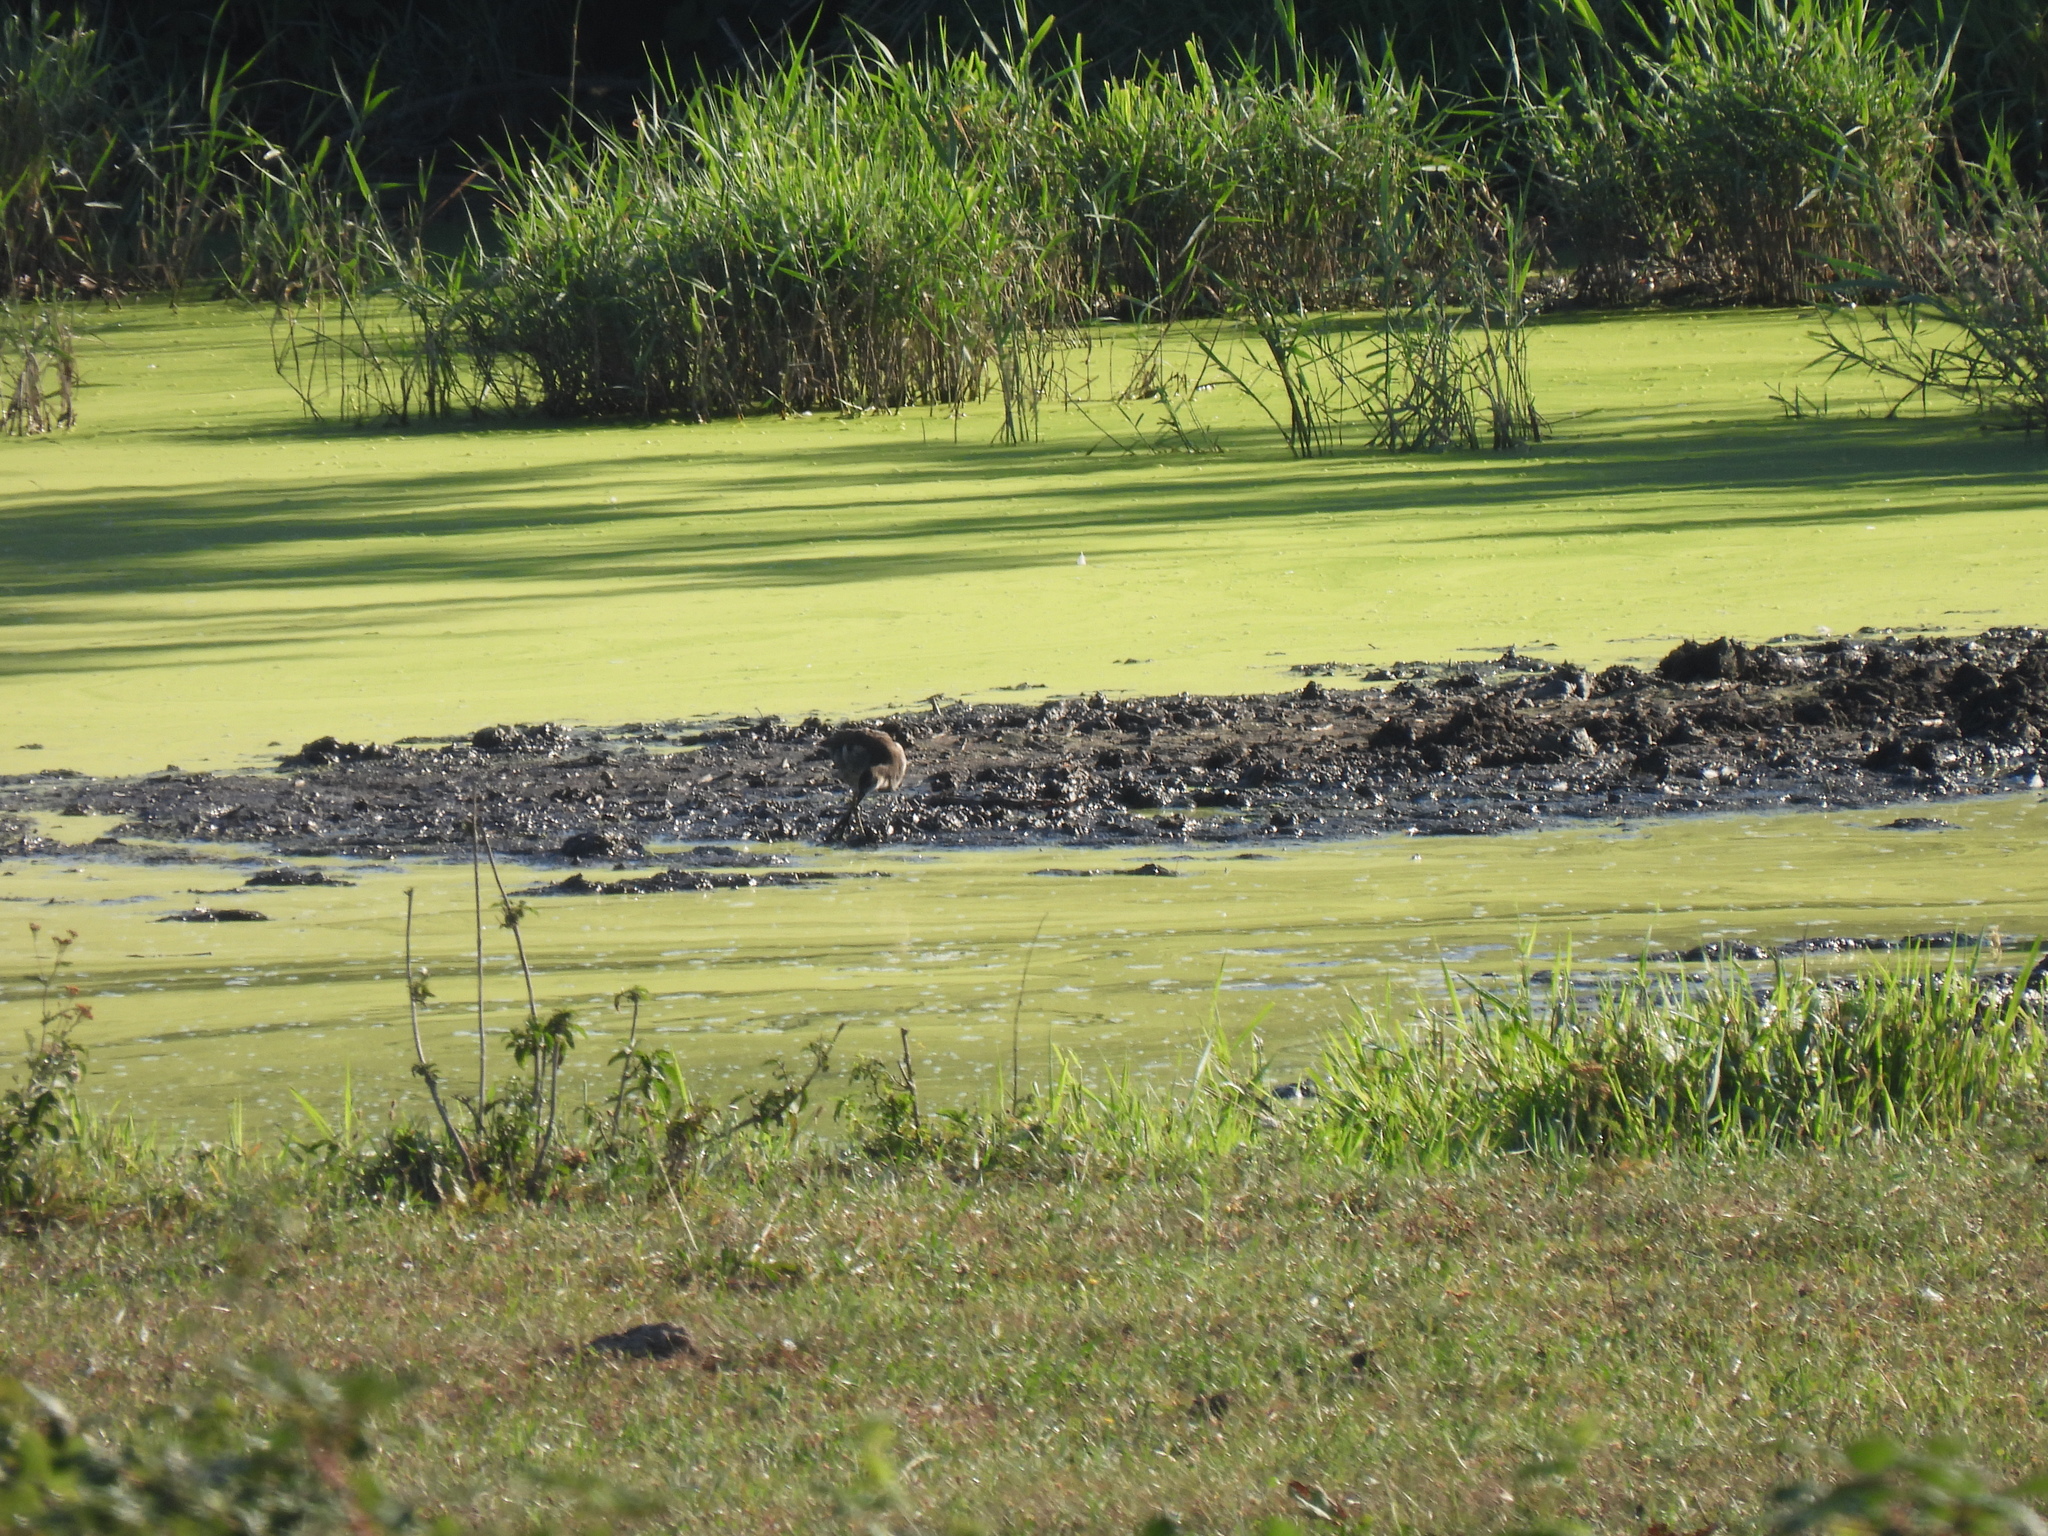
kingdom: Animalia
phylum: Chordata
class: Aves
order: Gruiformes
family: Rallidae
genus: Gallinula
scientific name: Gallinula chloropus
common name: Common moorhen
